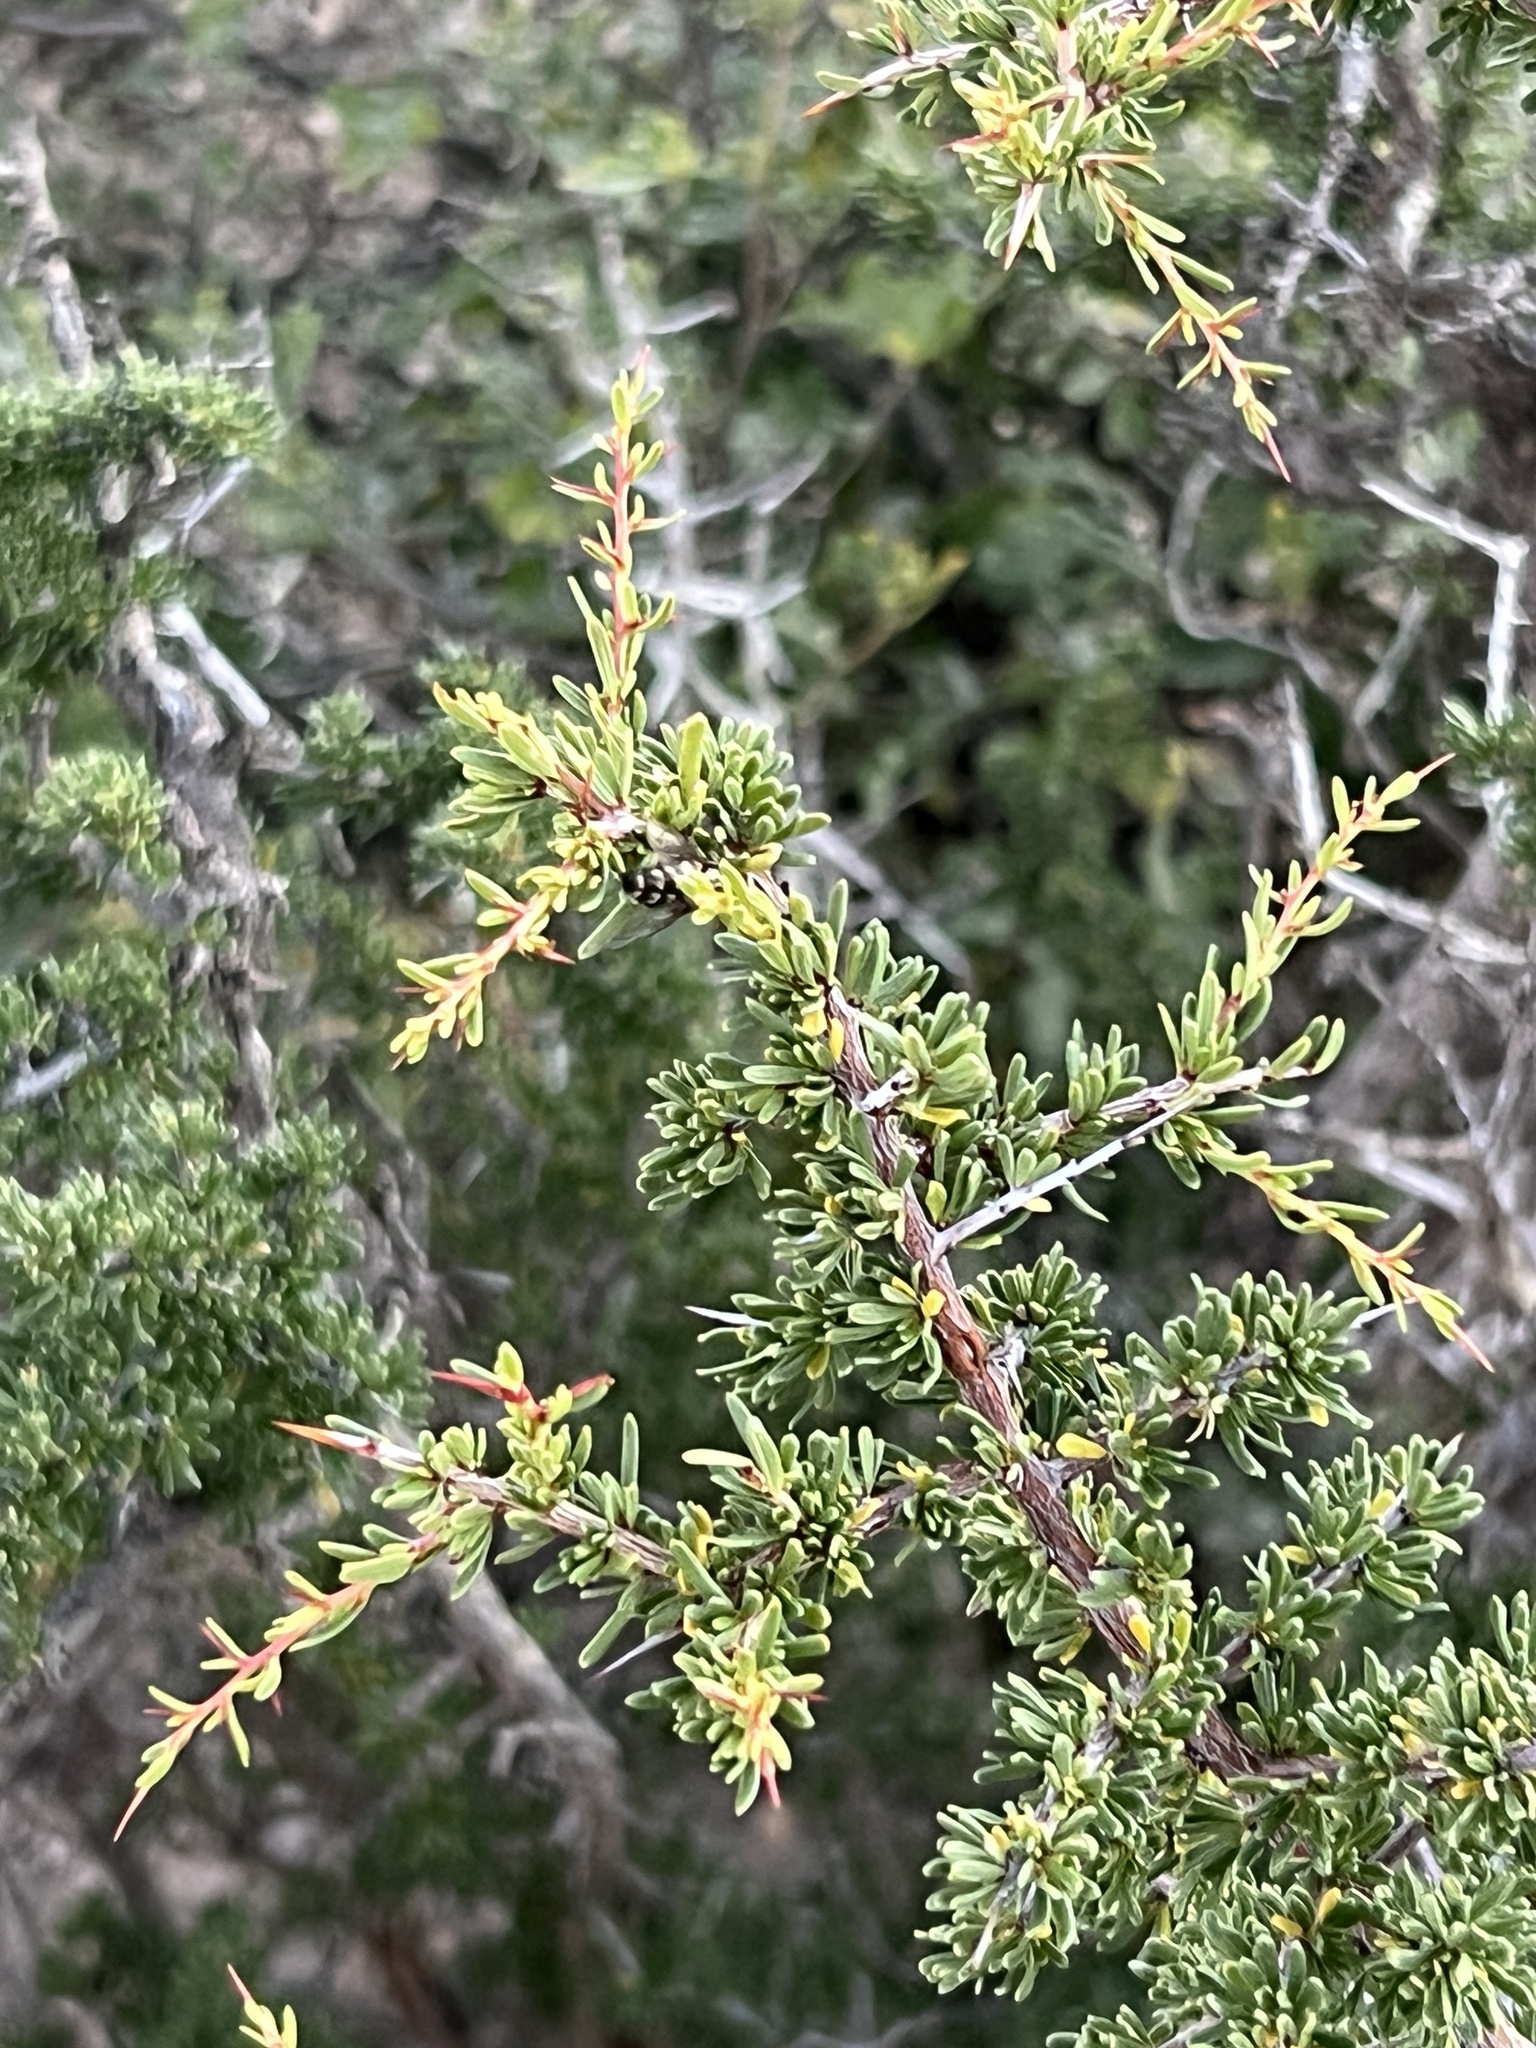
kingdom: Plantae
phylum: Tracheophyta
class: Magnoliopsida
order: Rosales
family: Rhamnaceae
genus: Condalia
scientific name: Condalia ericoides
